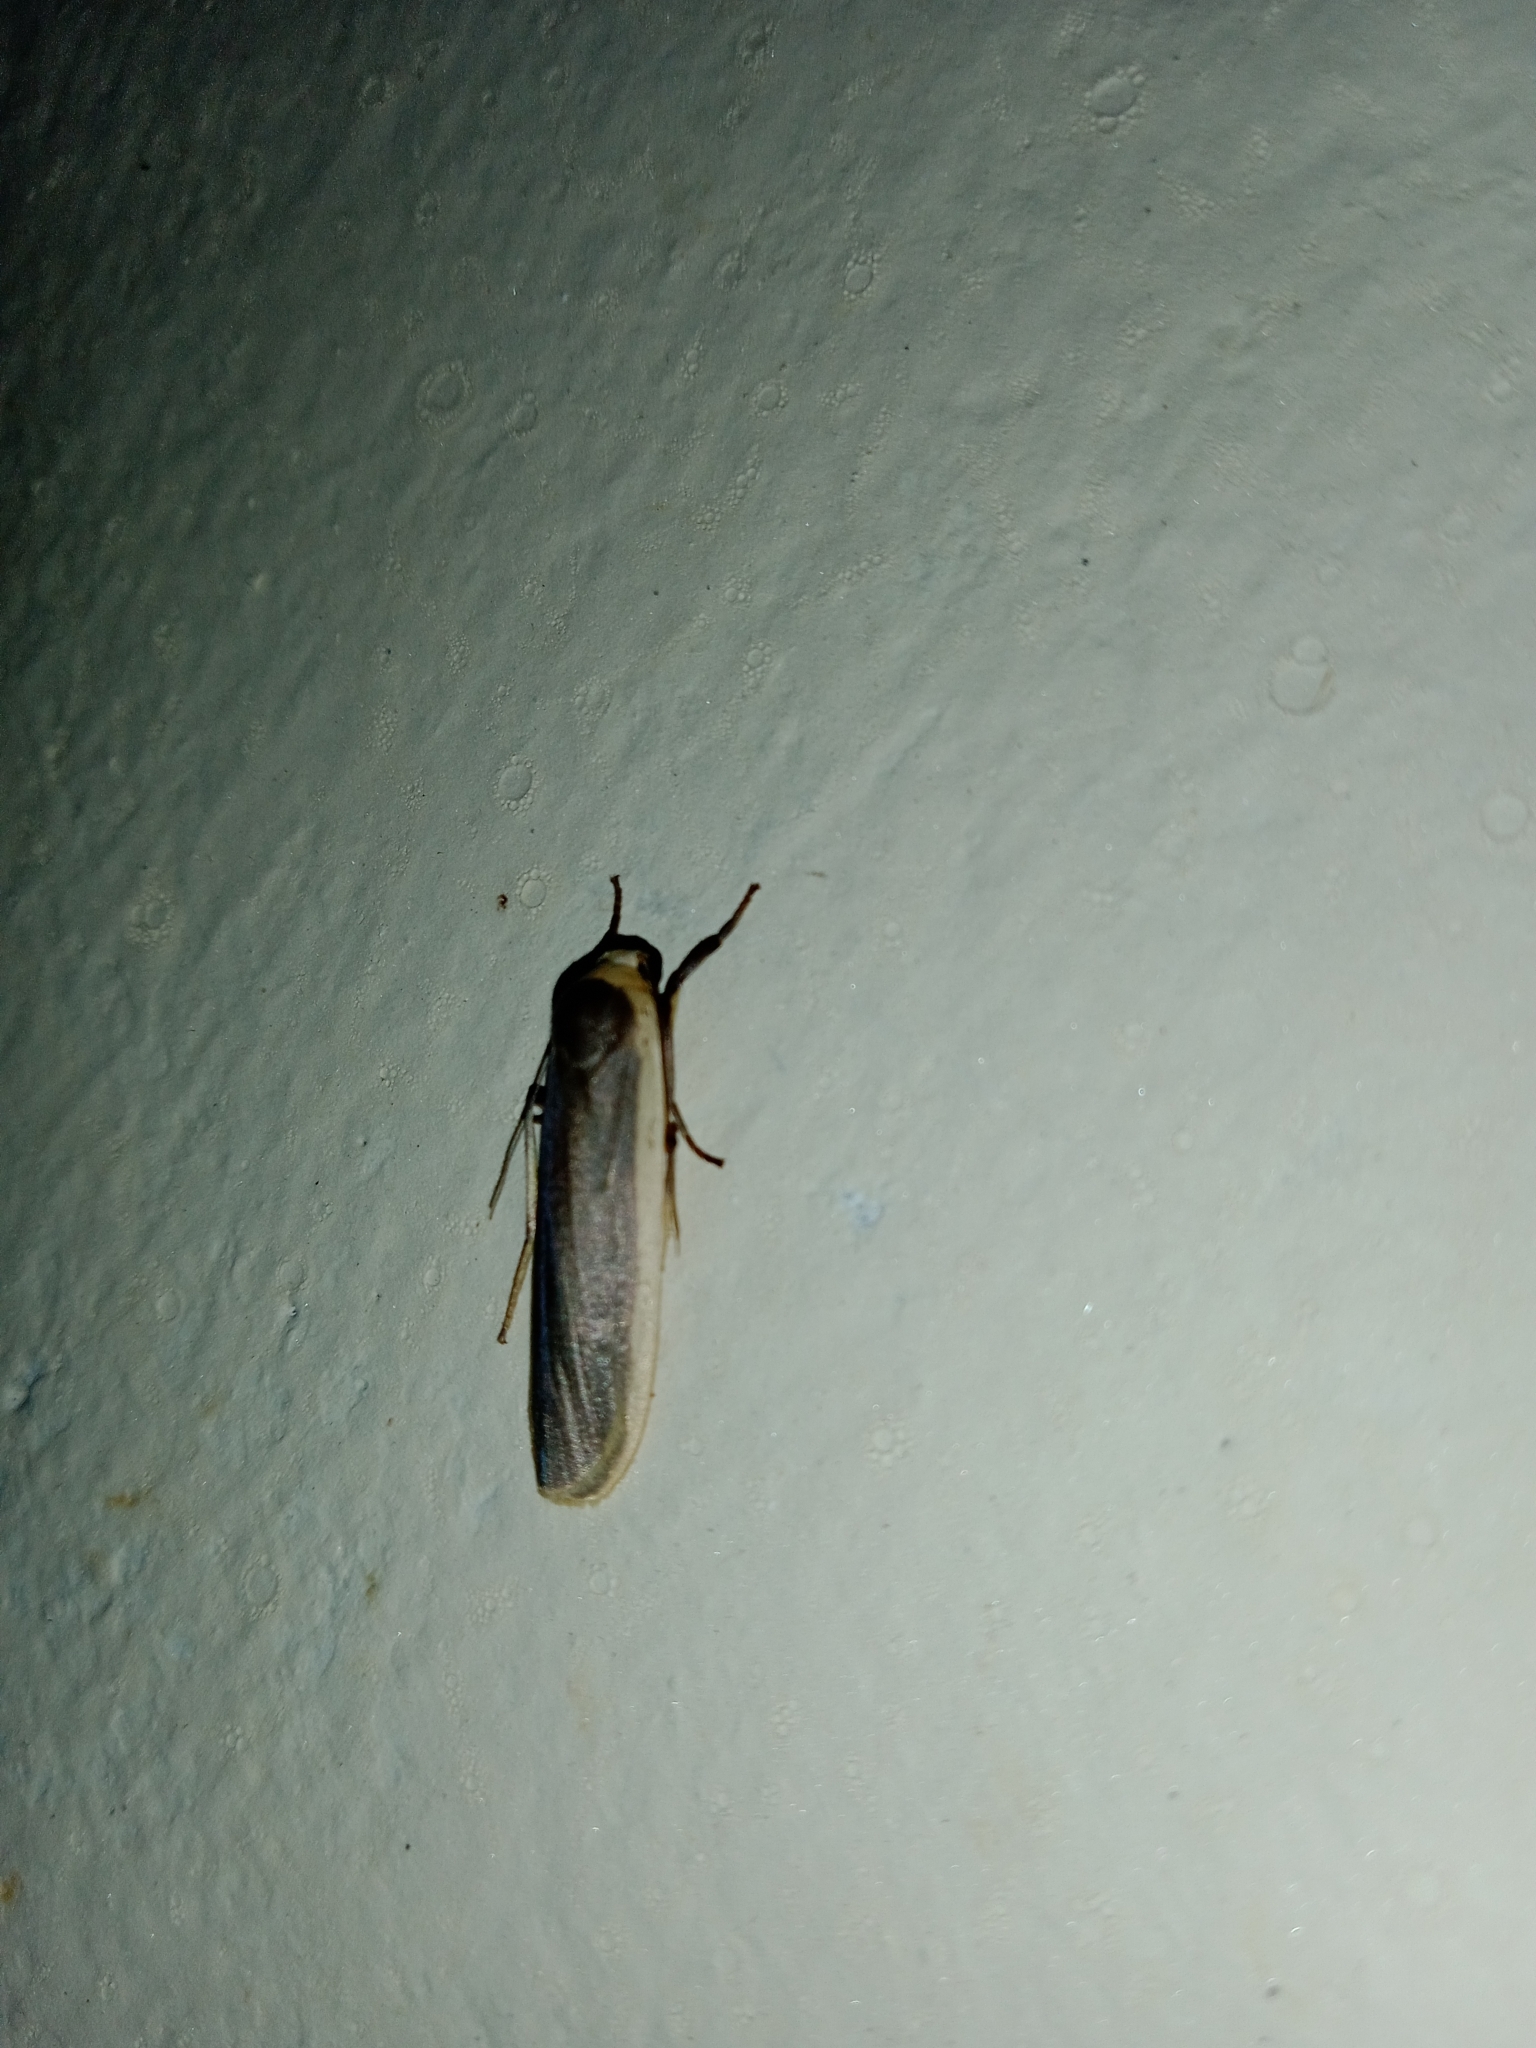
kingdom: Animalia
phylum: Arthropoda
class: Insecta
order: Lepidoptera
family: Erebidae
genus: Brunia
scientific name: Brunia antica
